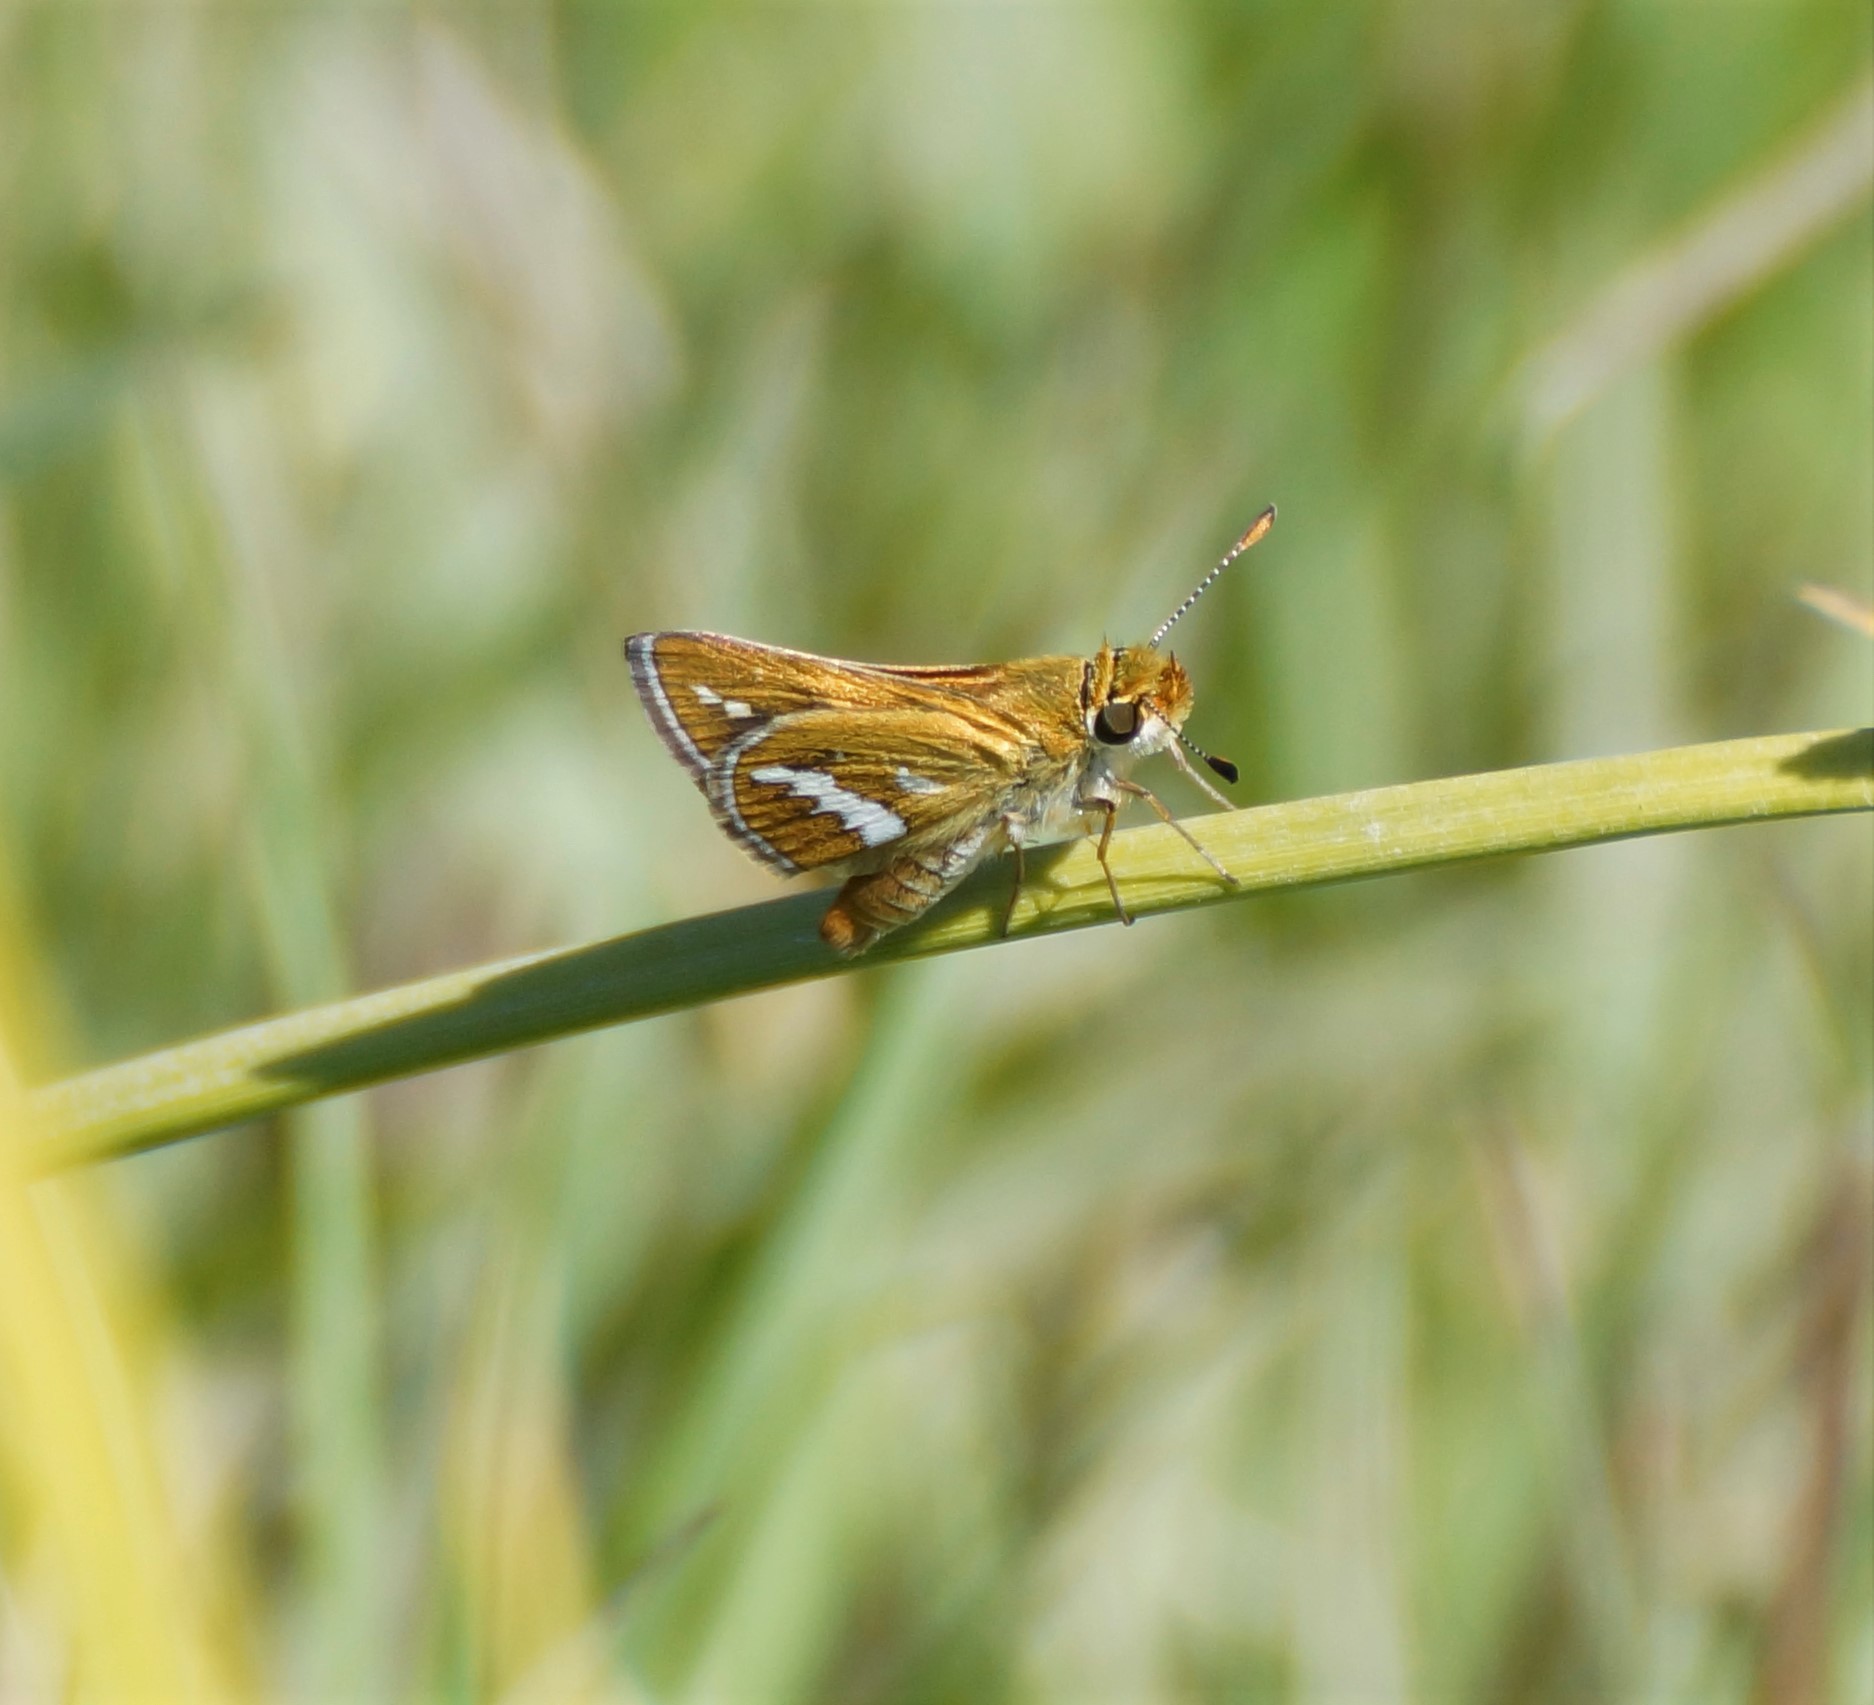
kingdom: Animalia
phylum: Arthropoda
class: Insecta
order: Lepidoptera
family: Hesperiidae
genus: Taractrocera
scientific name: Taractrocera papyria
